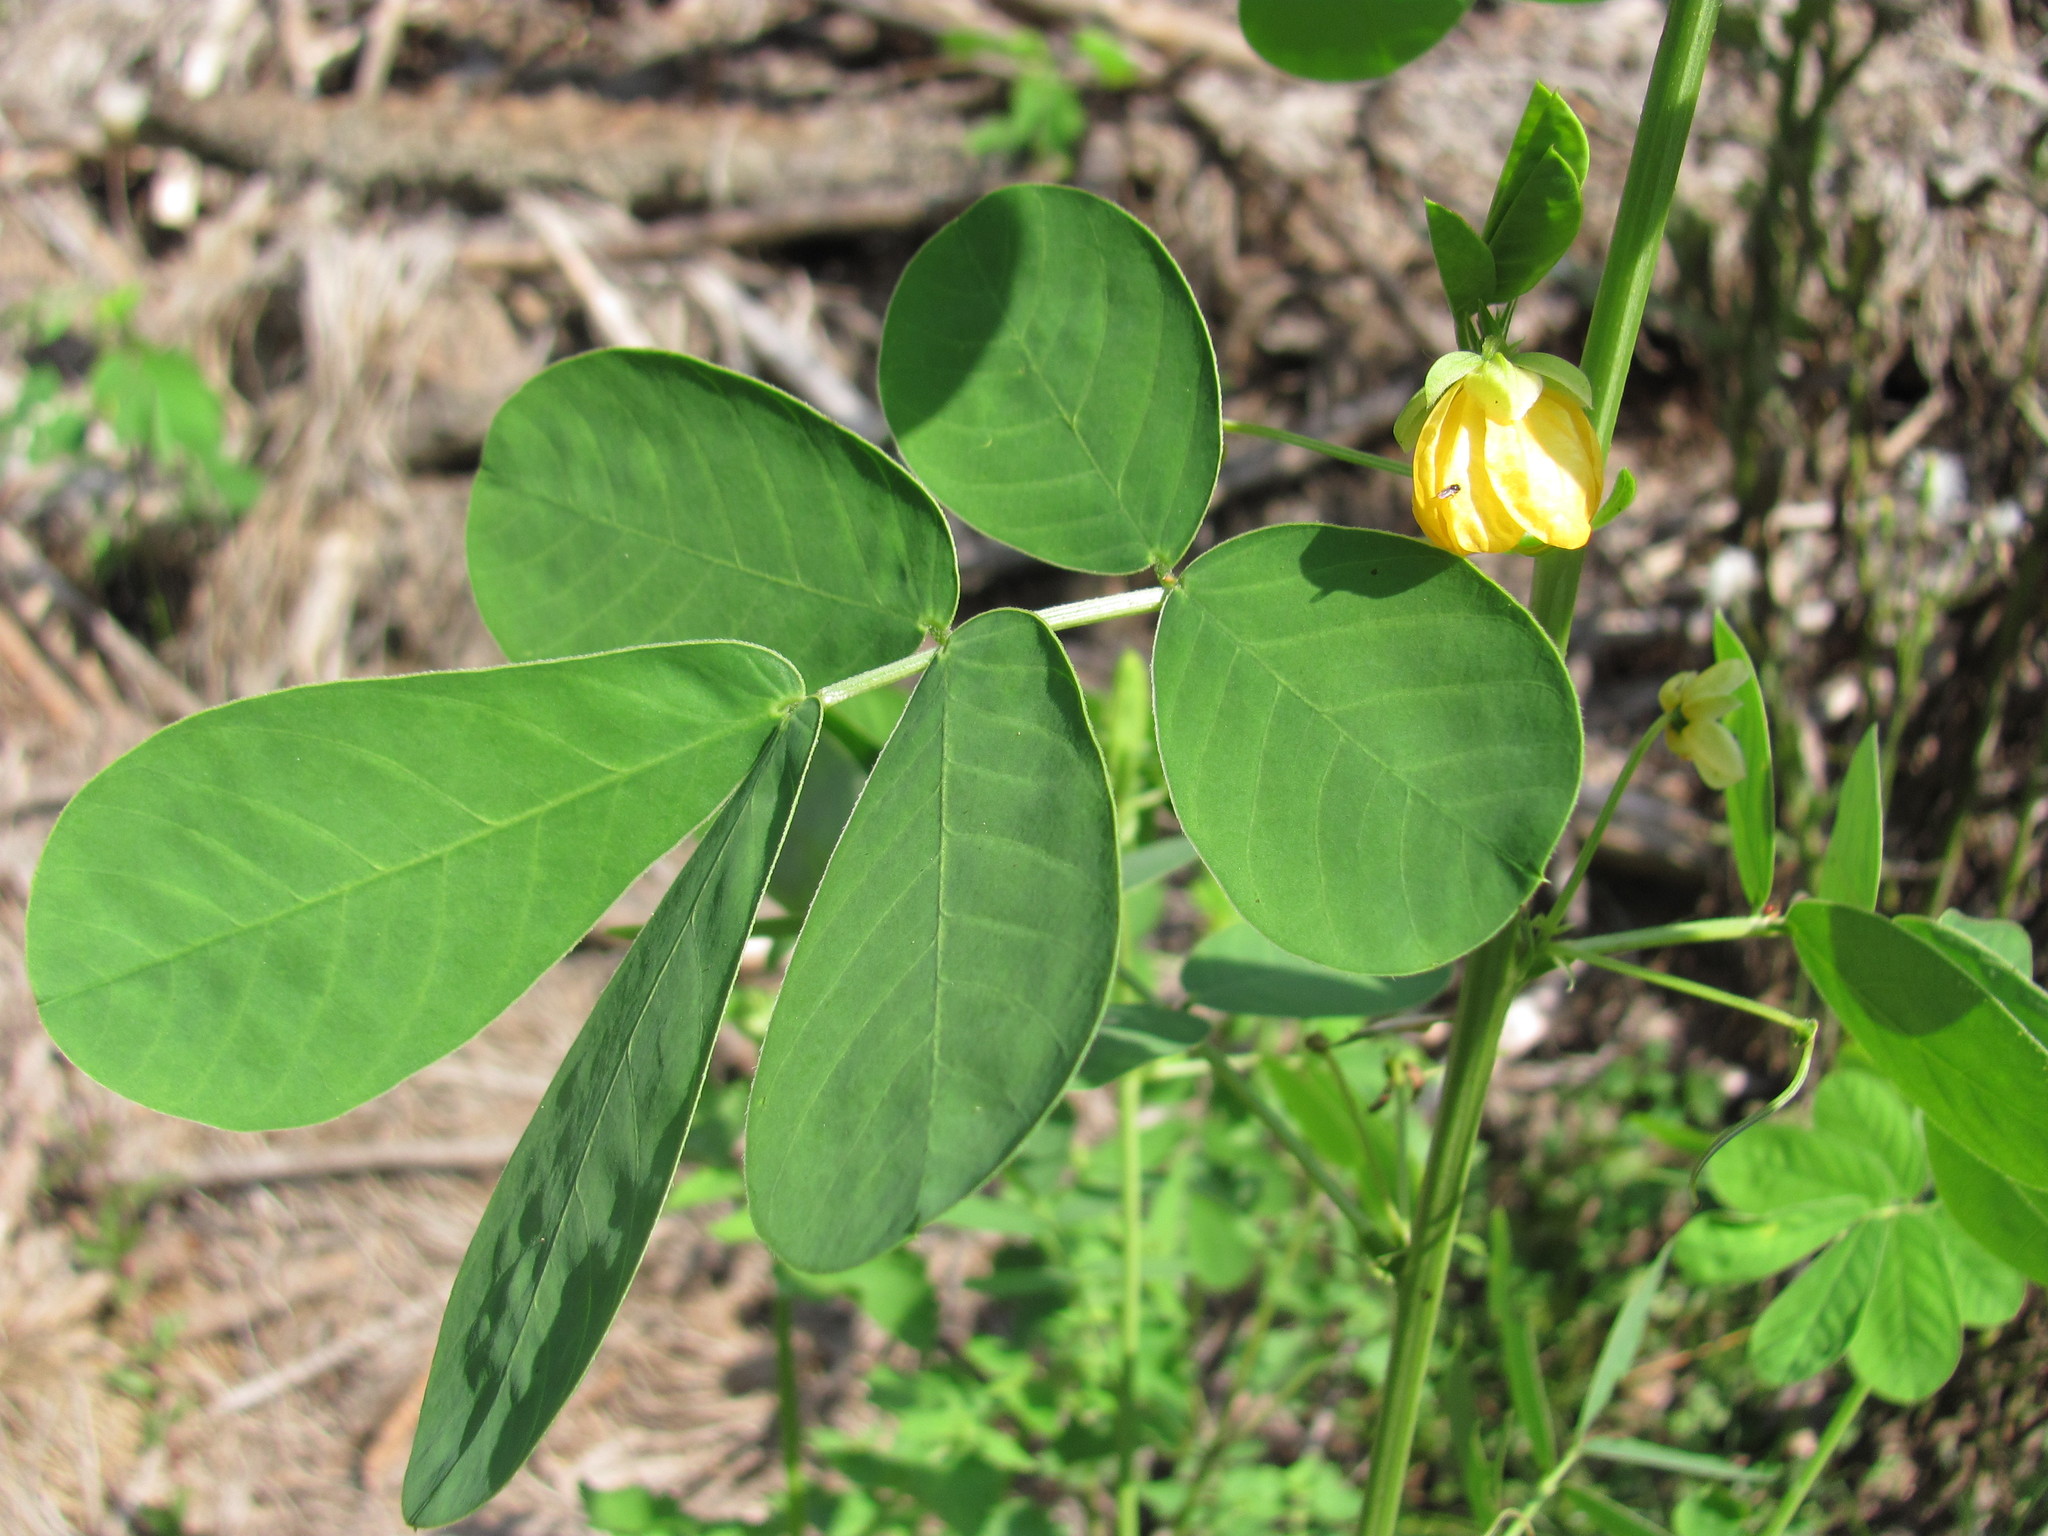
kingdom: Plantae
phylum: Tracheophyta
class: Magnoliopsida
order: Fabales
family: Fabaceae
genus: Senna
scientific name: Senna obtusifolia
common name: Java-bean
